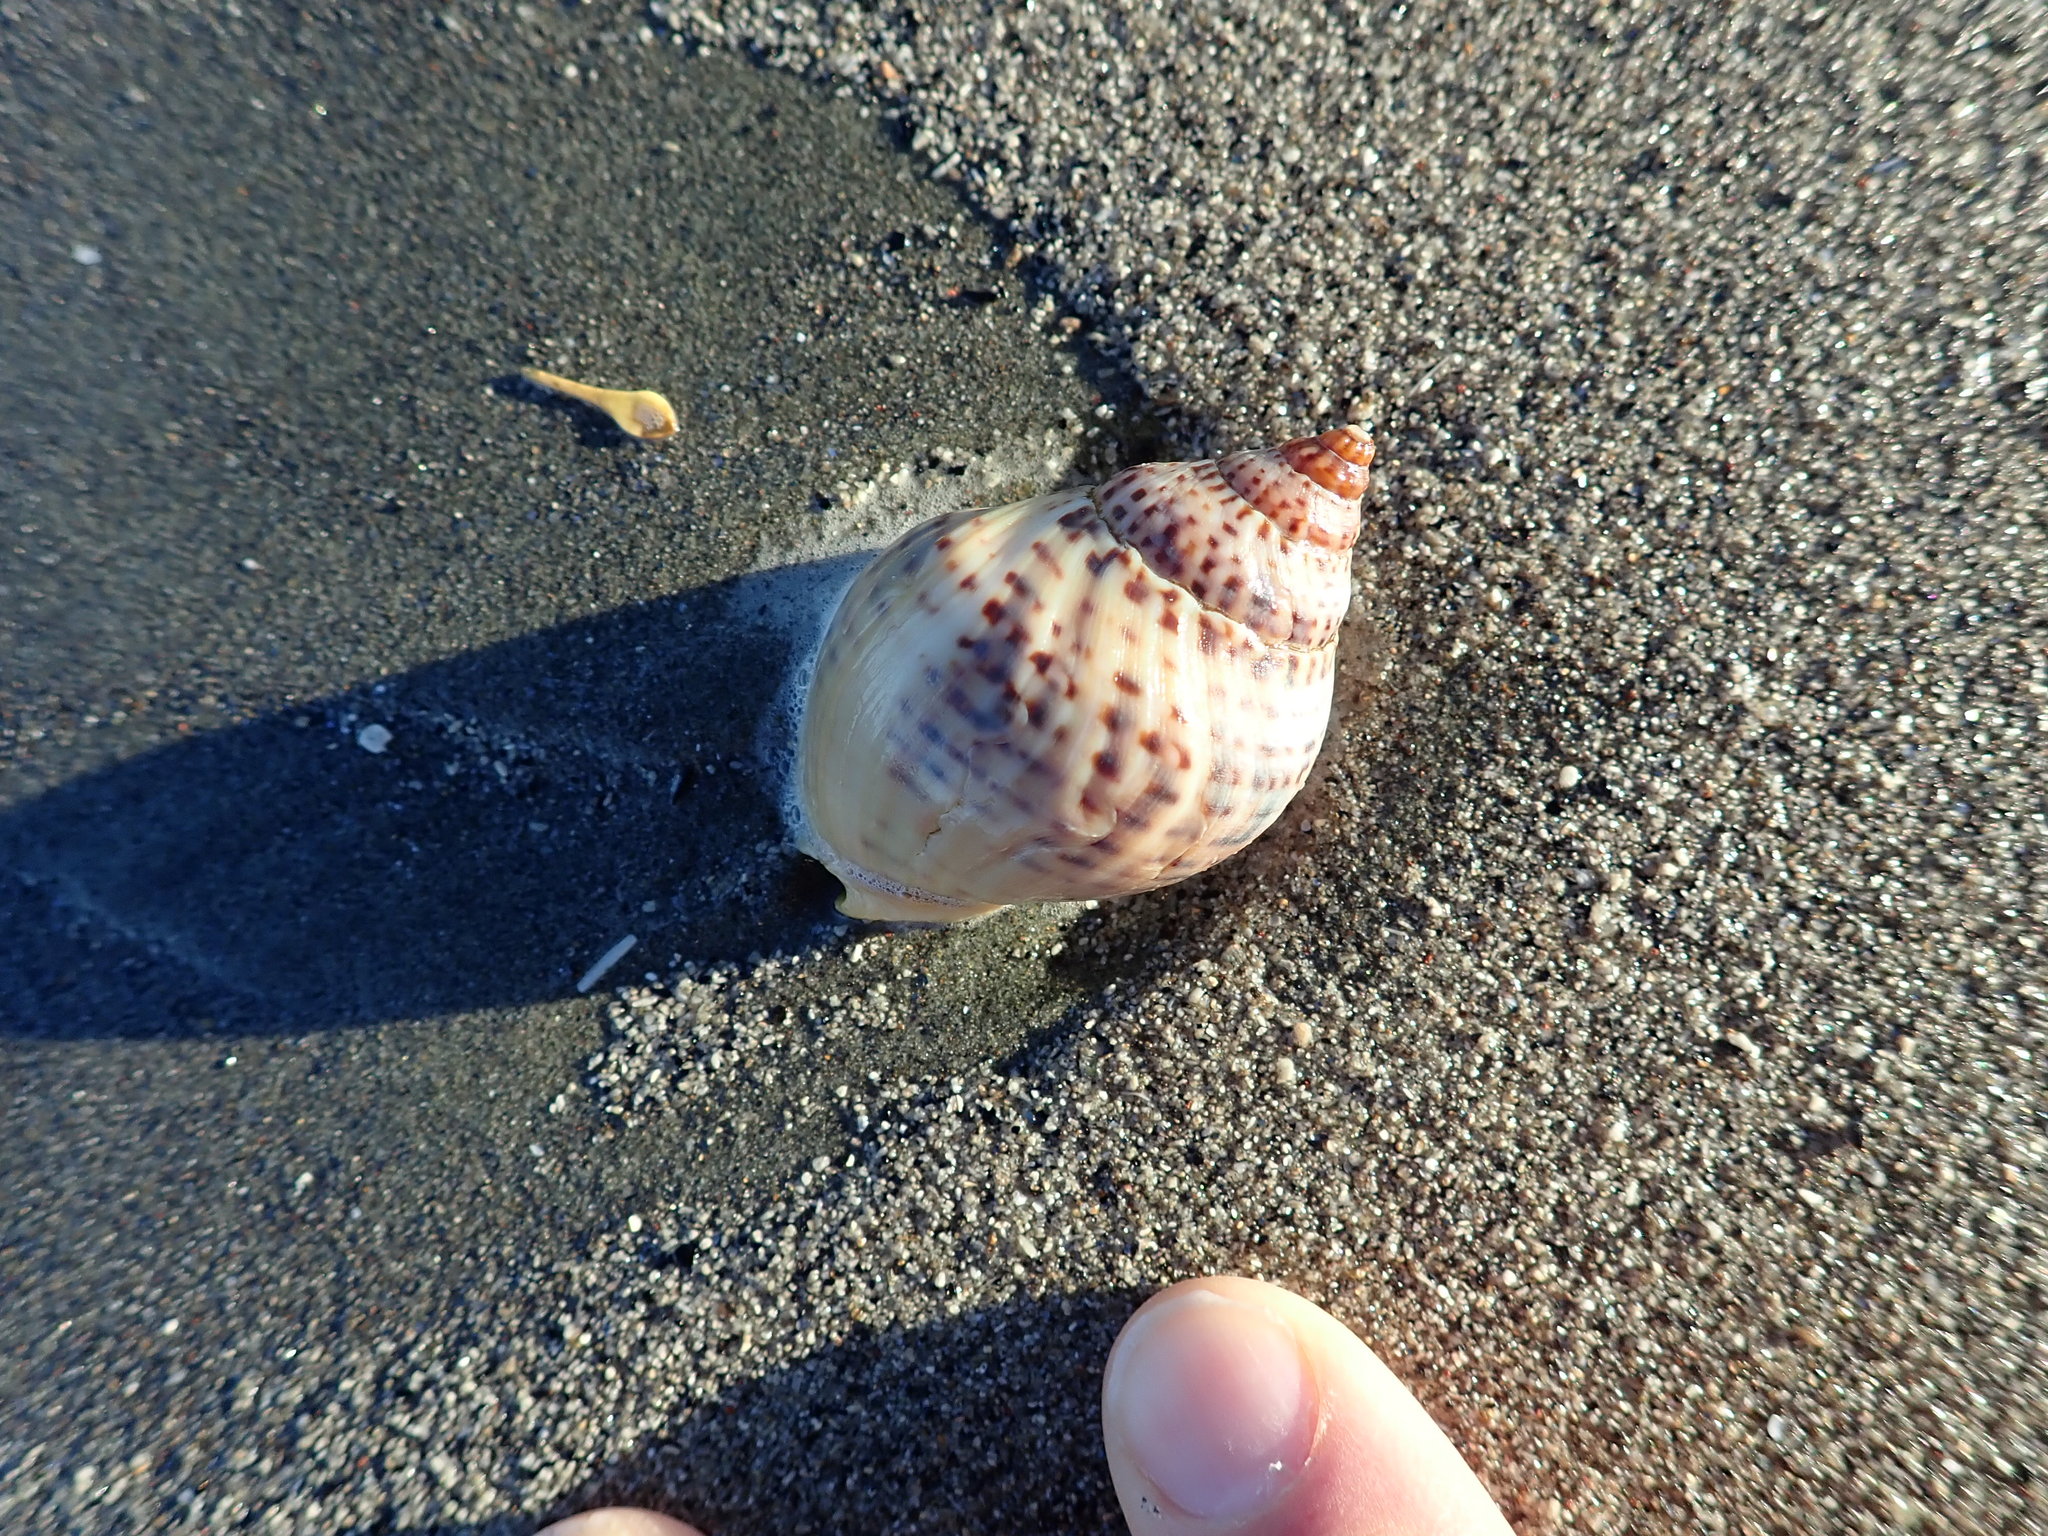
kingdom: Animalia
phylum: Mollusca
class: Gastropoda
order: Neogastropoda
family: Cominellidae
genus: Cominella
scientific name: Cominella adspersa
